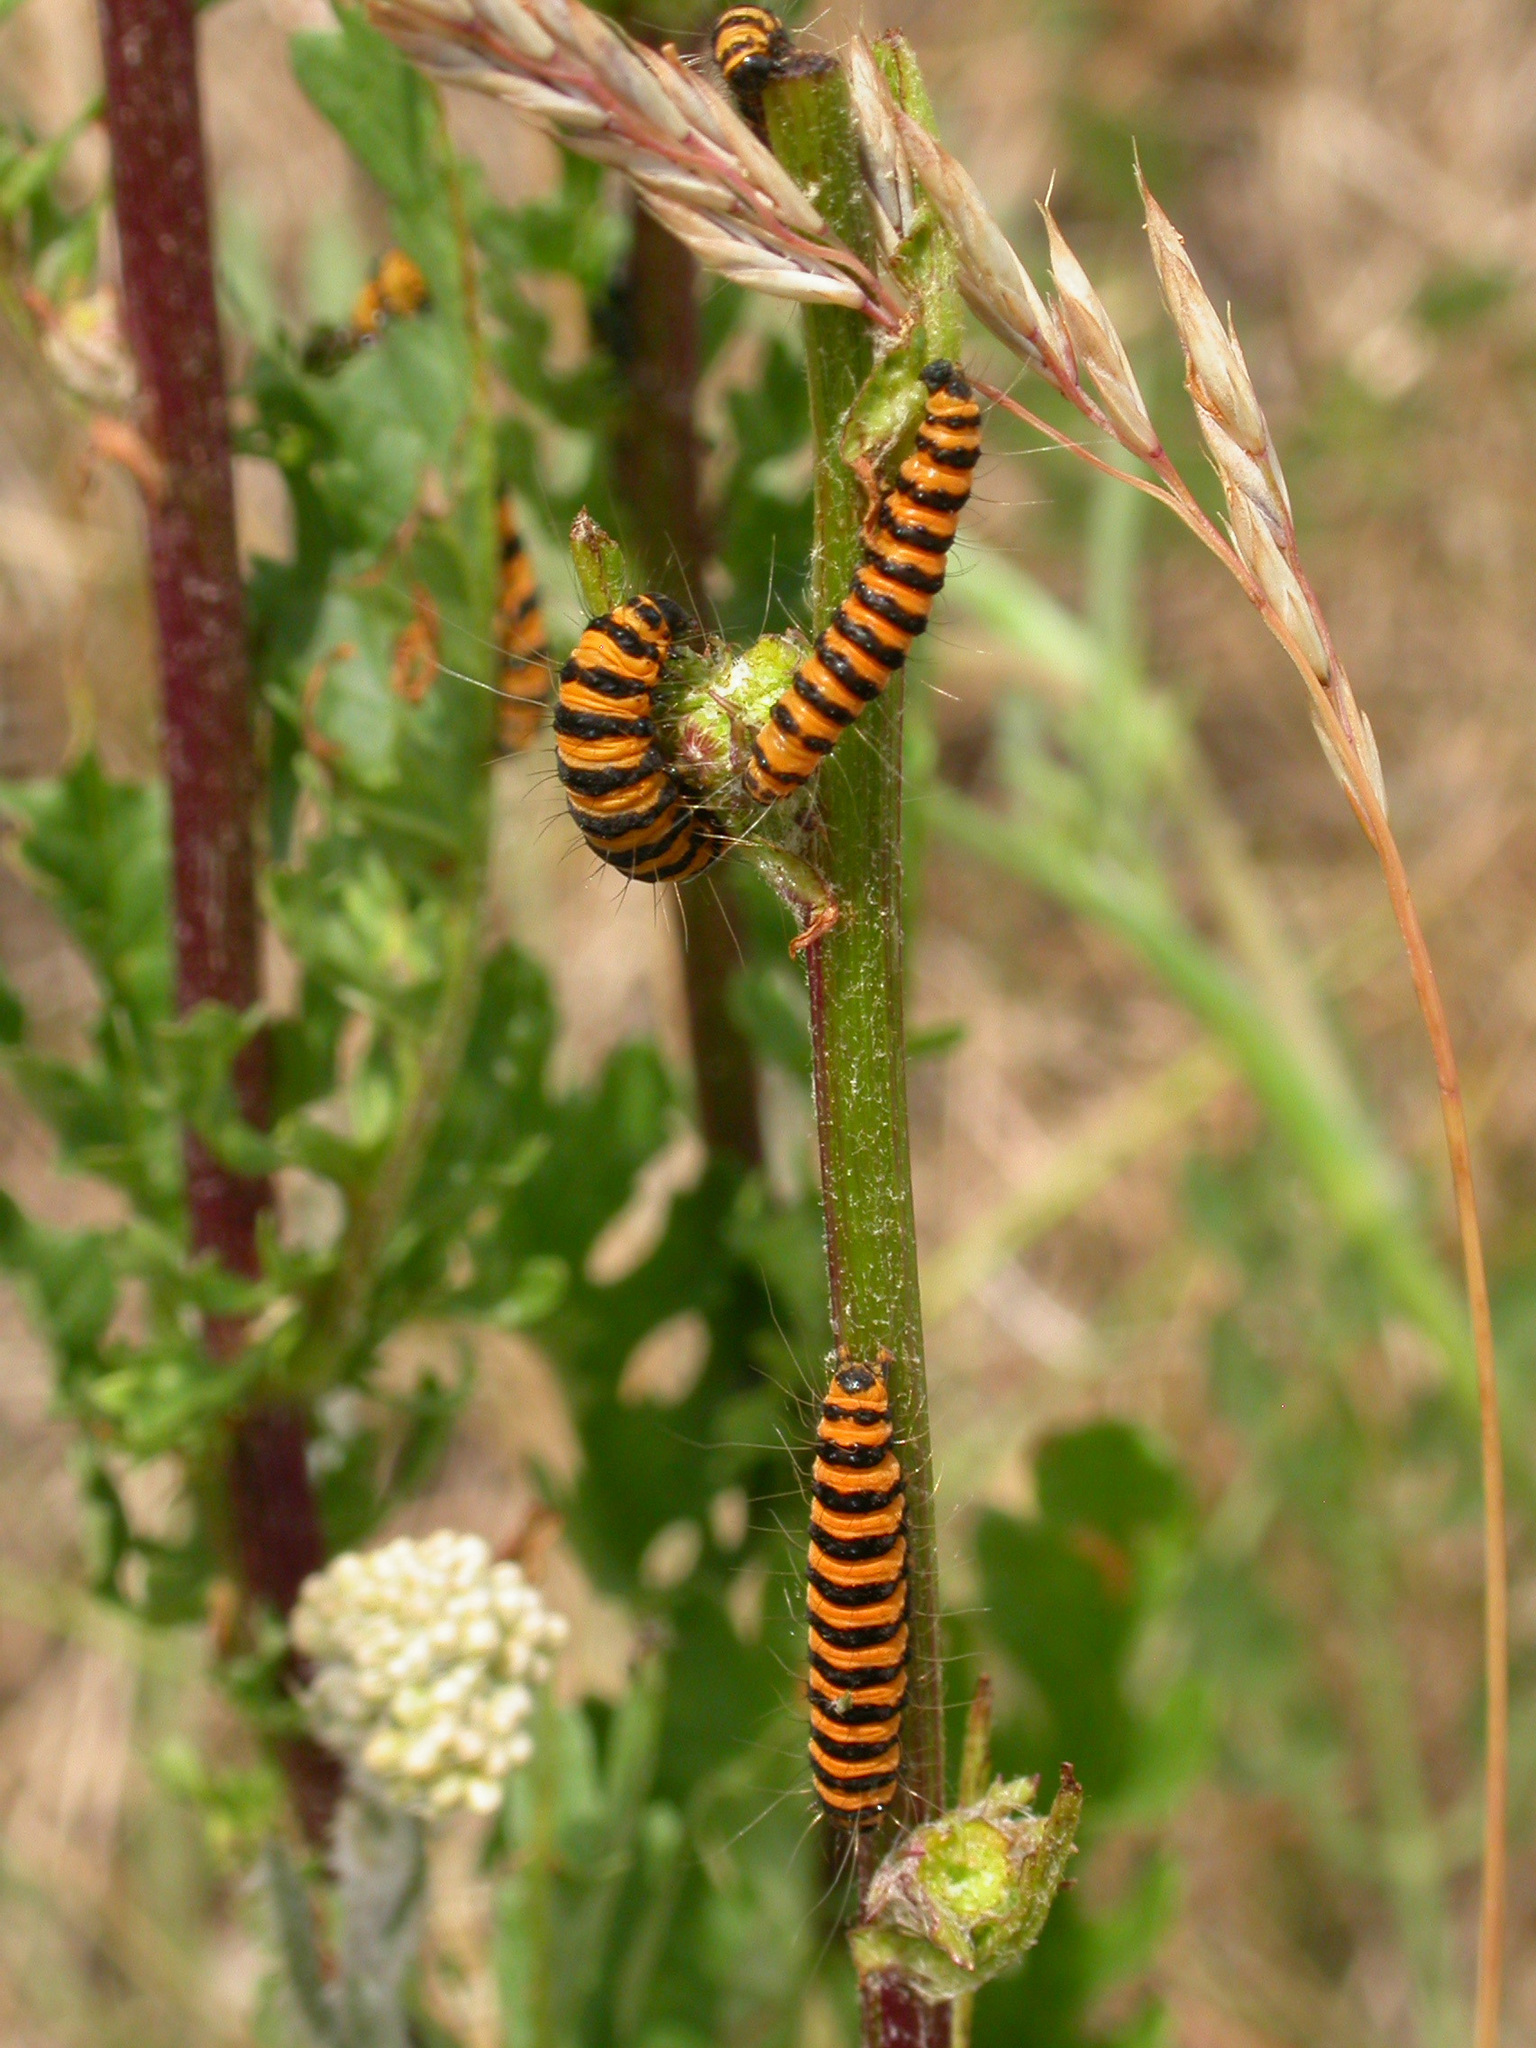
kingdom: Animalia
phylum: Arthropoda
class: Insecta
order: Lepidoptera
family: Erebidae
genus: Tyria
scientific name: Tyria jacobaeae
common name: Cinnabar
